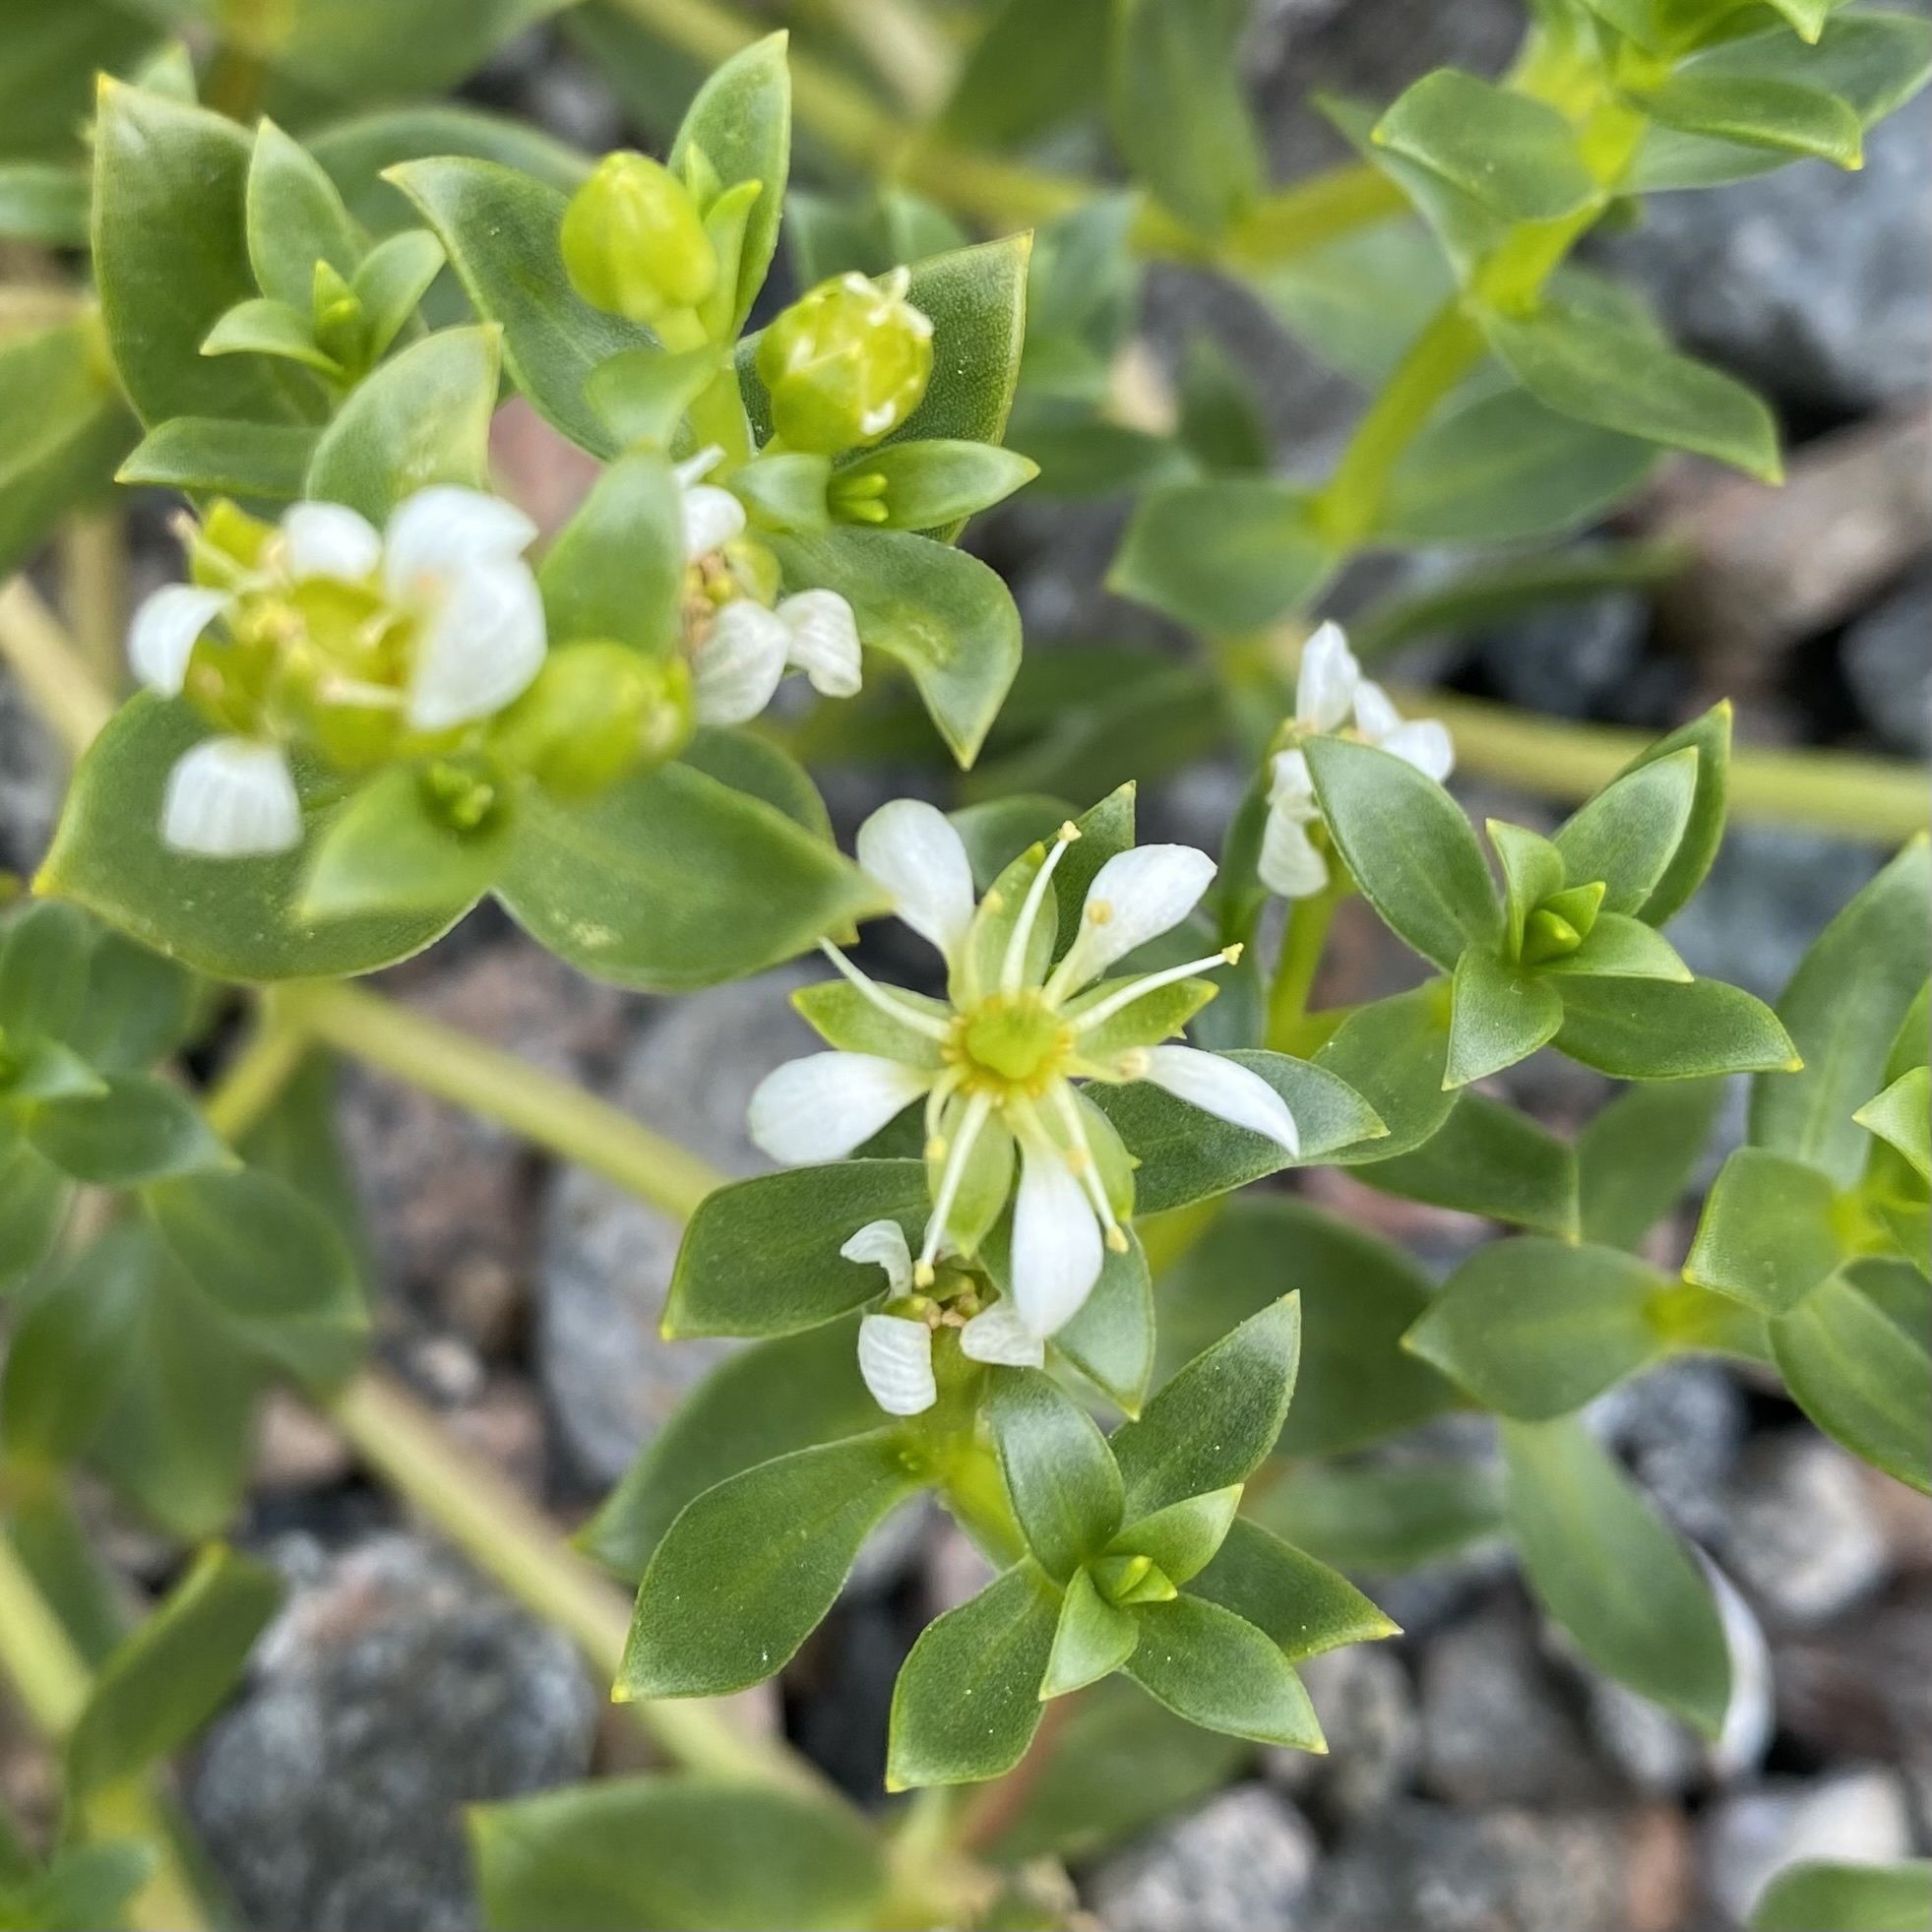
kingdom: Plantae
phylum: Tracheophyta
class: Magnoliopsida
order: Caryophyllales
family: Caryophyllaceae
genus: Honckenya
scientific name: Honckenya peploides
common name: Sea sandwort
